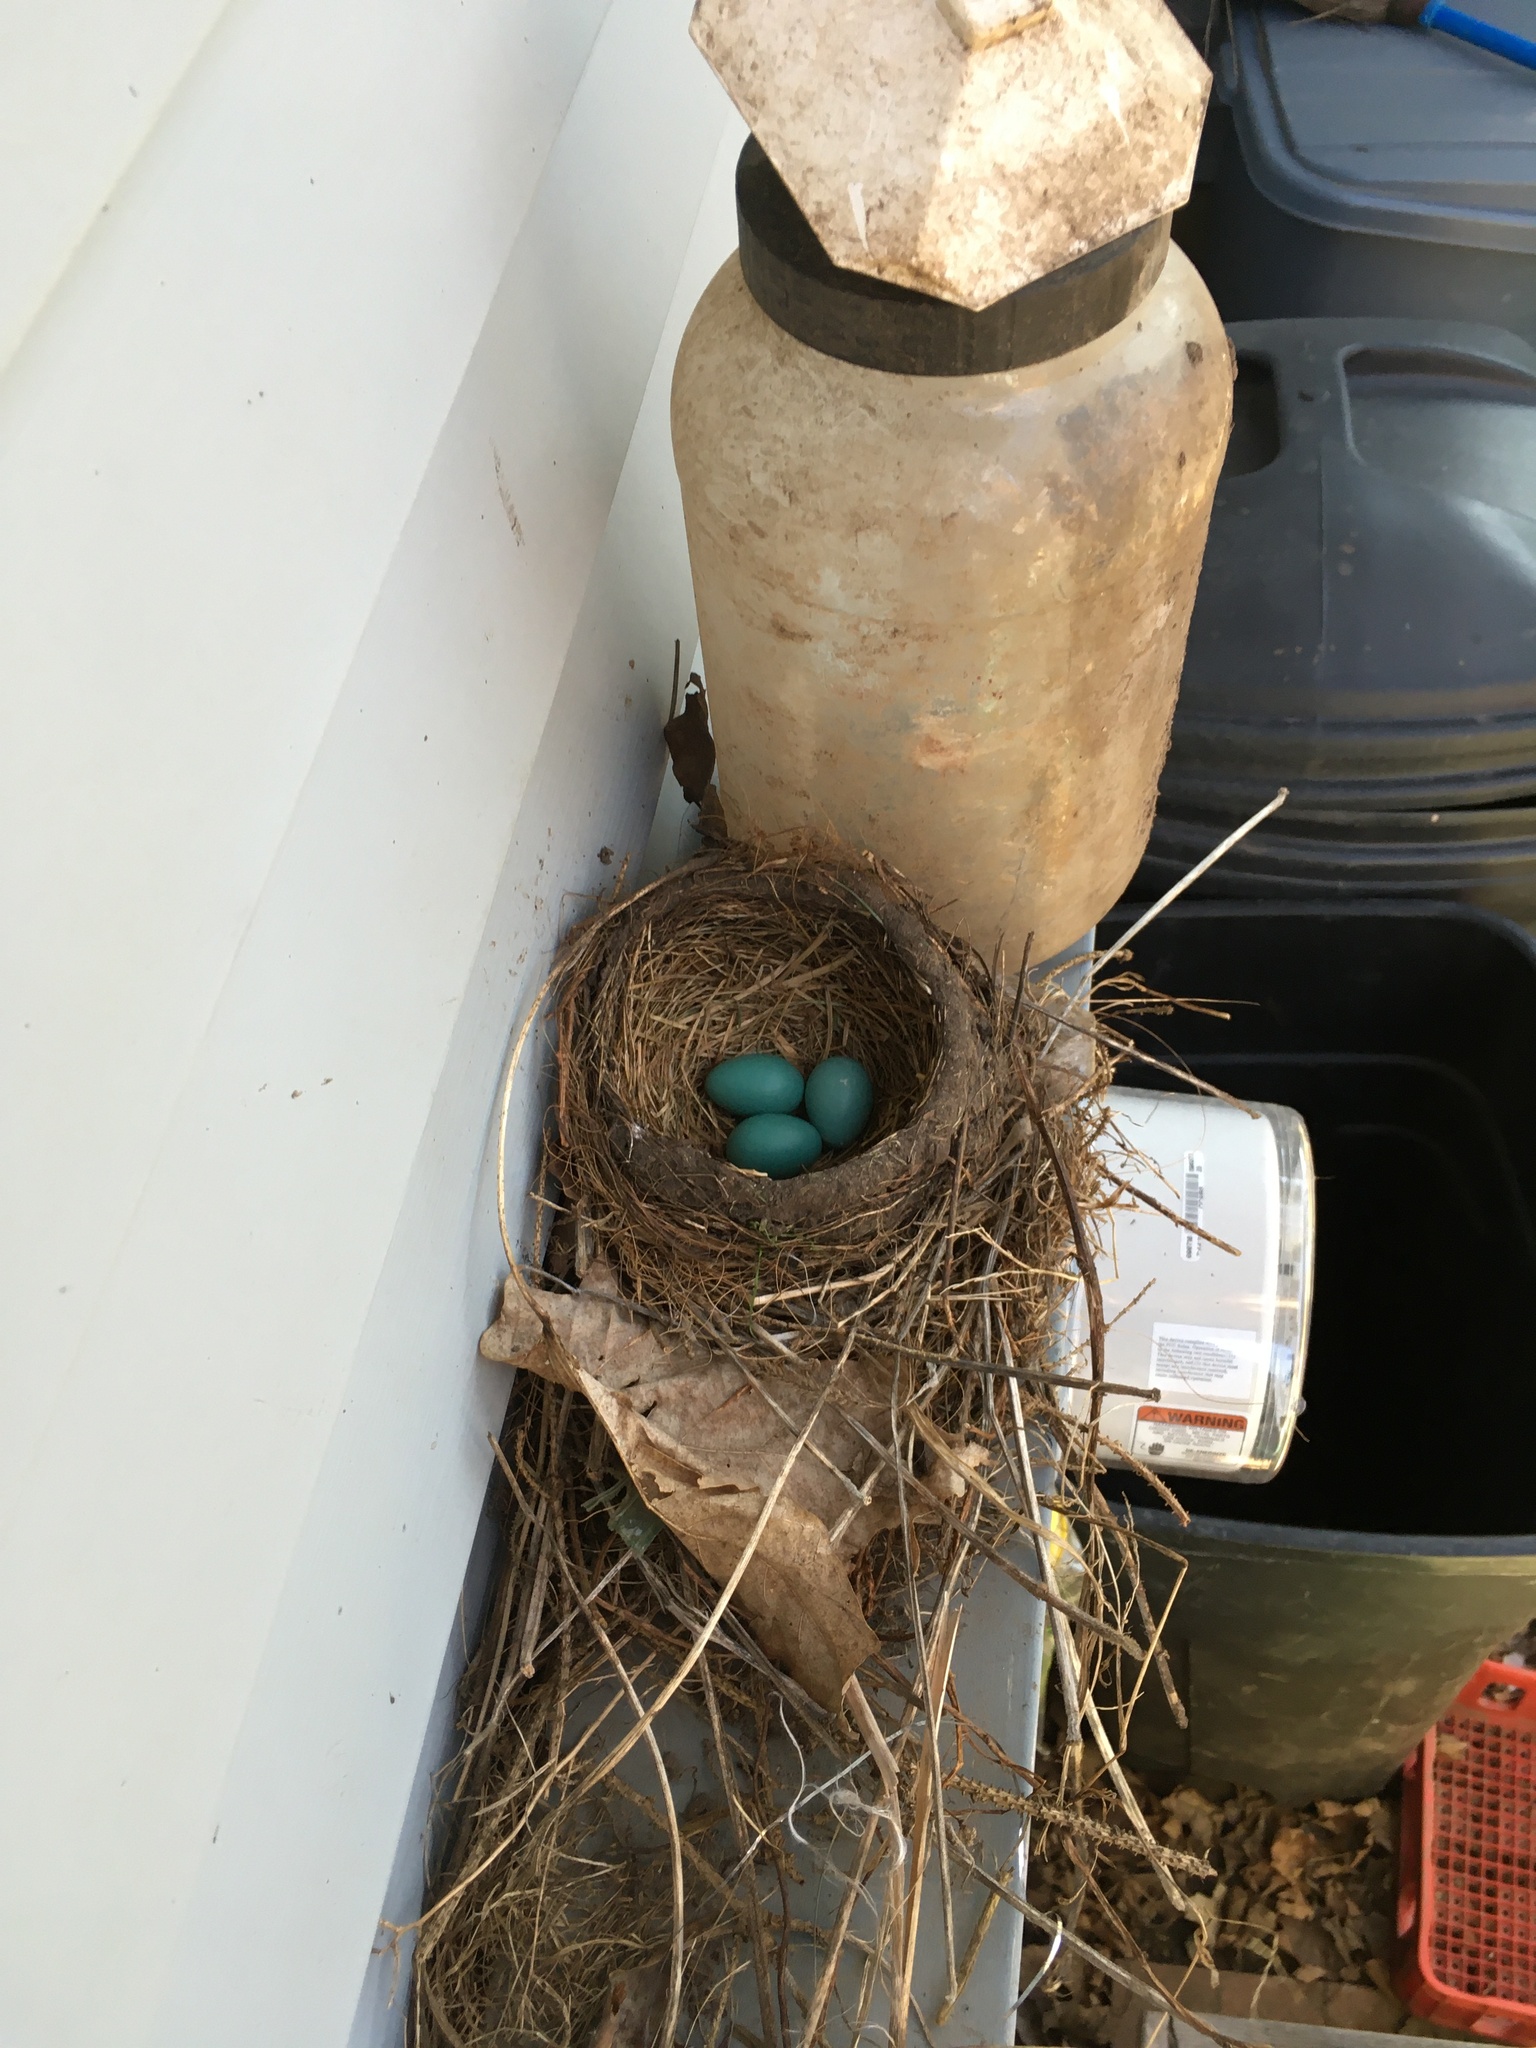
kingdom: Animalia
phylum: Chordata
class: Aves
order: Passeriformes
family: Turdidae
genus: Turdus
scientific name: Turdus migratorius
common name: American robin
